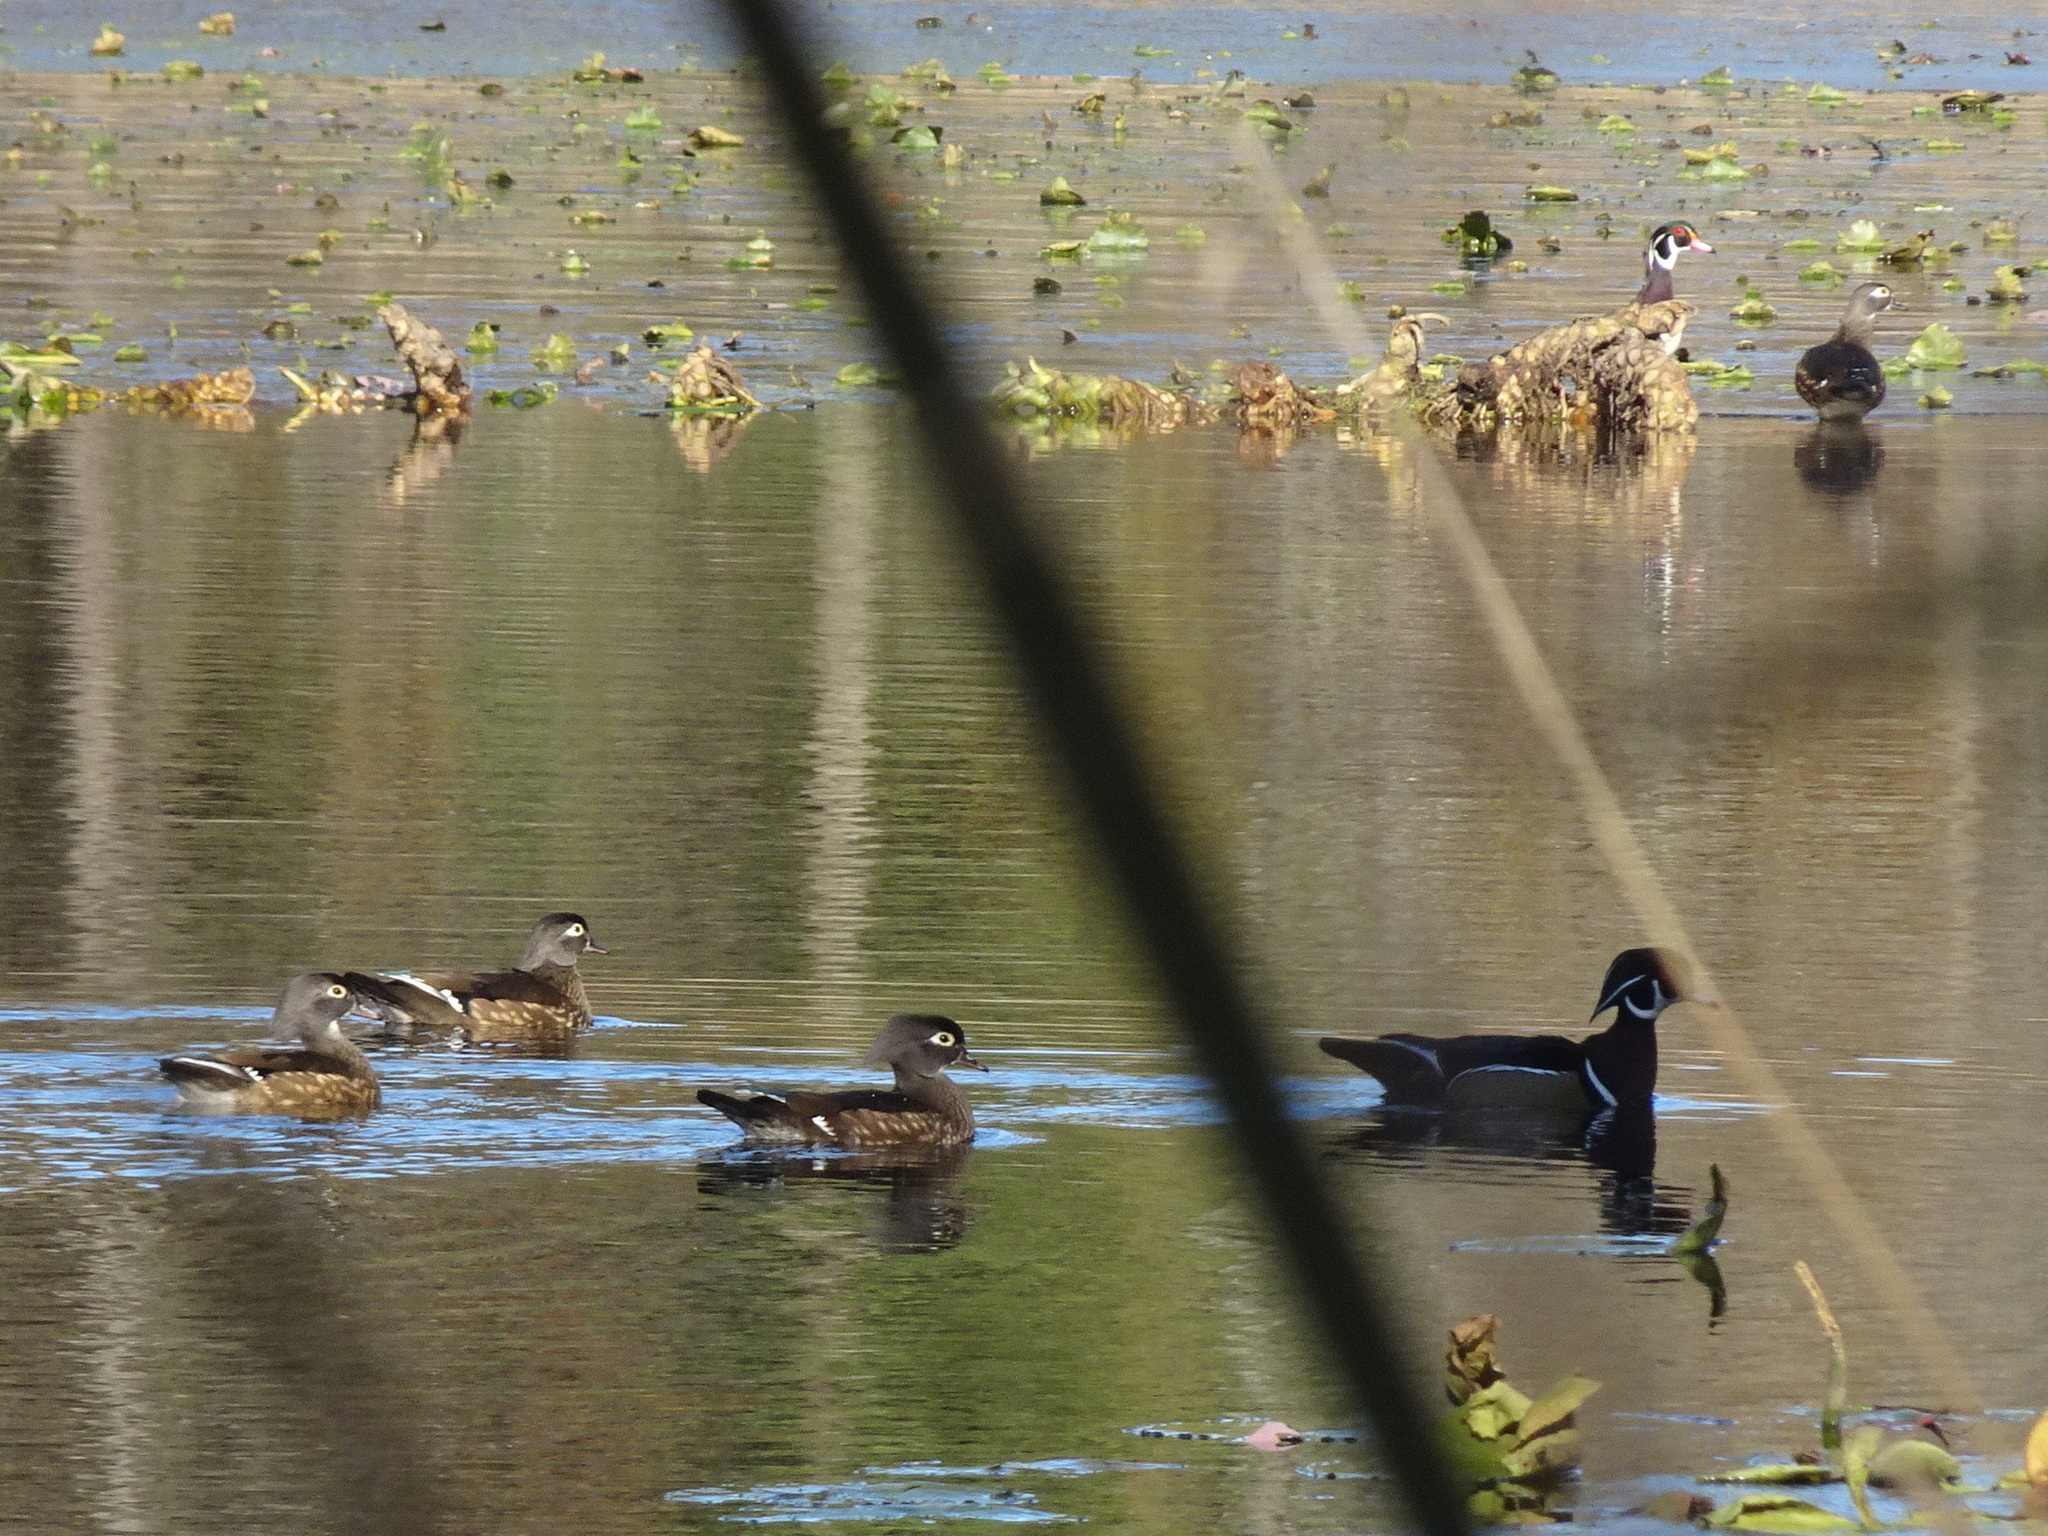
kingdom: Animalia
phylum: Chordata
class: Aves
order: Anseriformes
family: Anatidae
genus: Aix
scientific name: Aix sponsa
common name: Wood duck
